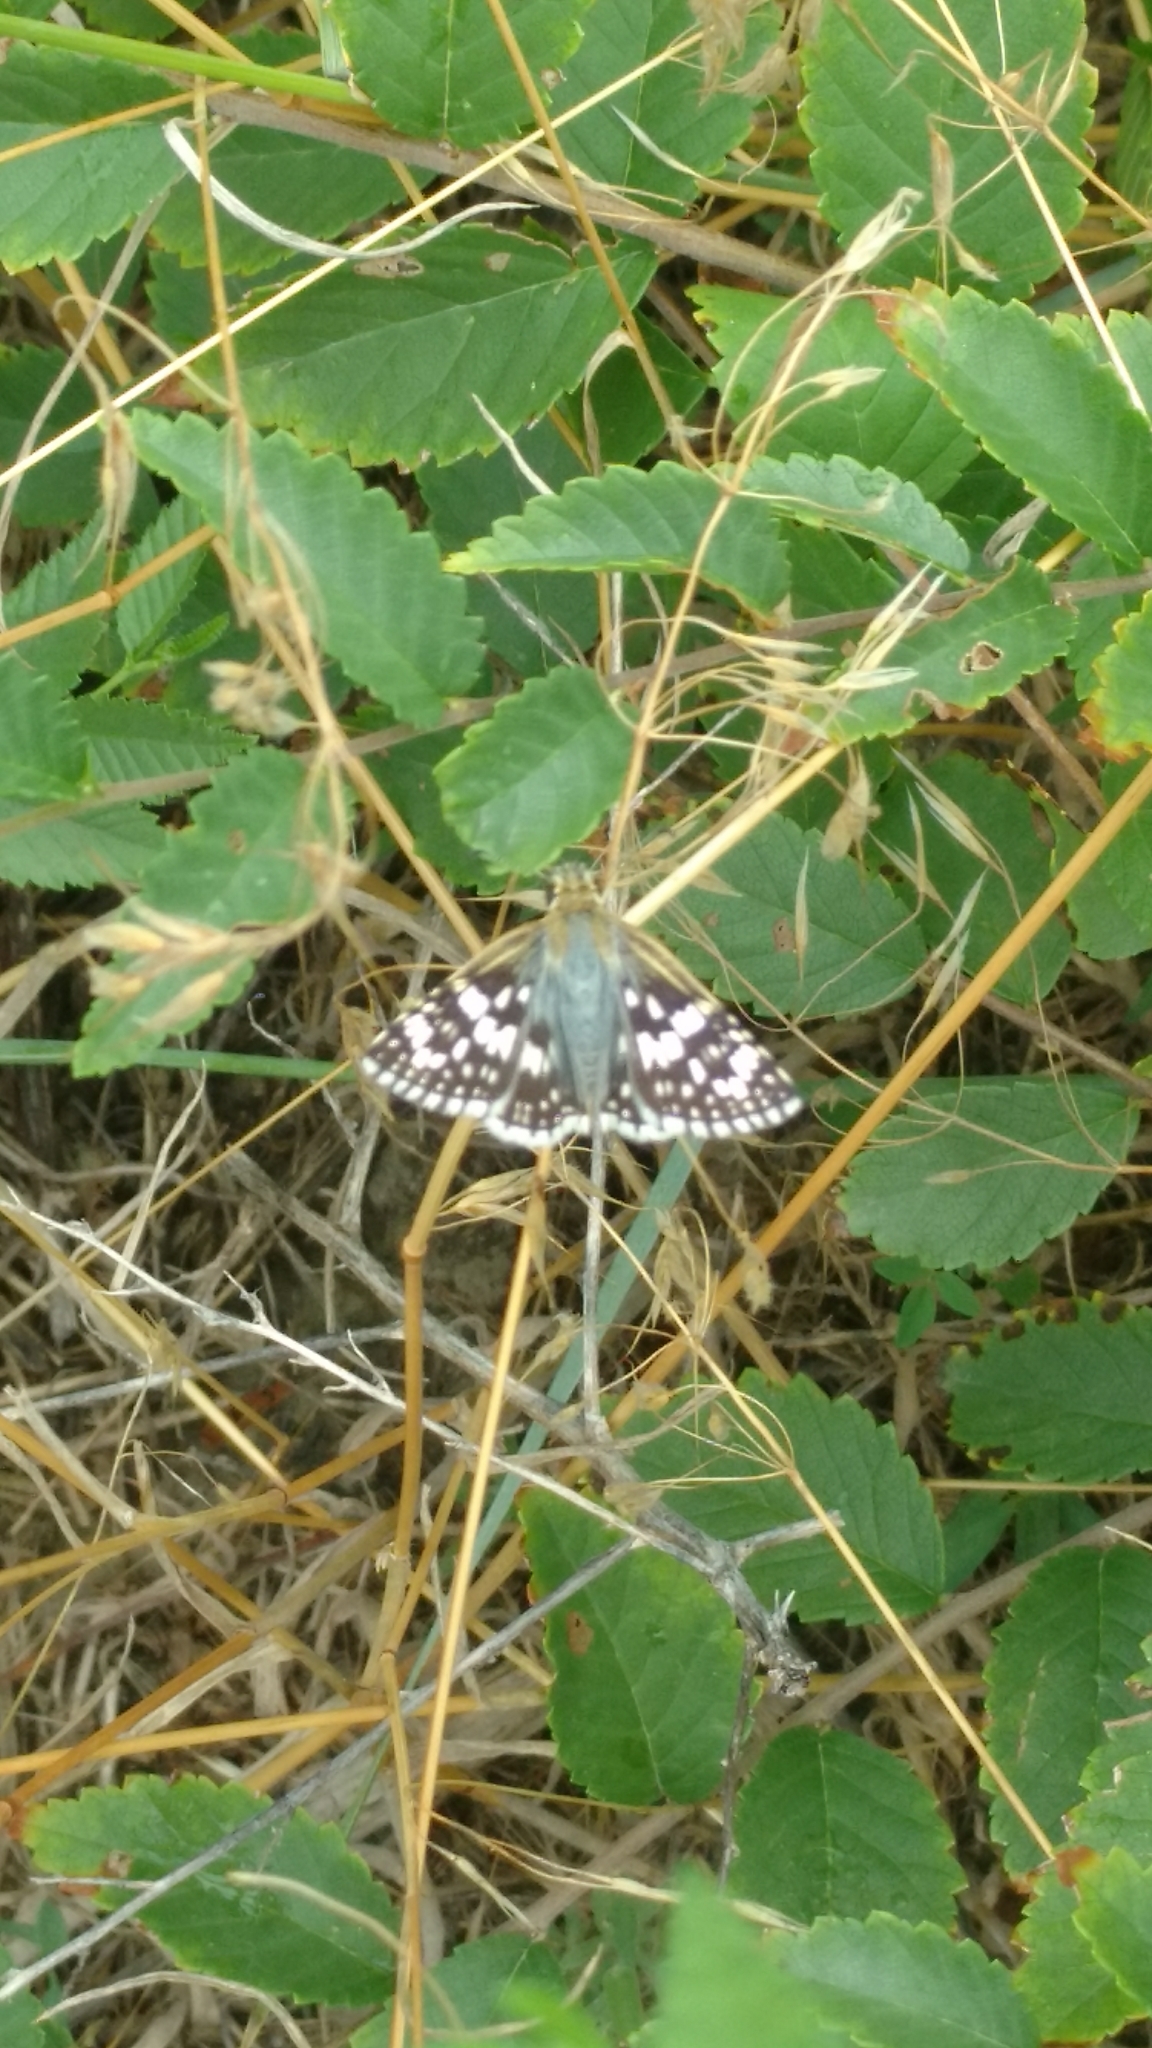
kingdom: Animalia
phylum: Arthropoda
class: Insecta
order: Lepidoptera
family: Hesperiidae
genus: Burnsius
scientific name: Burnsius communis
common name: Common checkered-skipper
